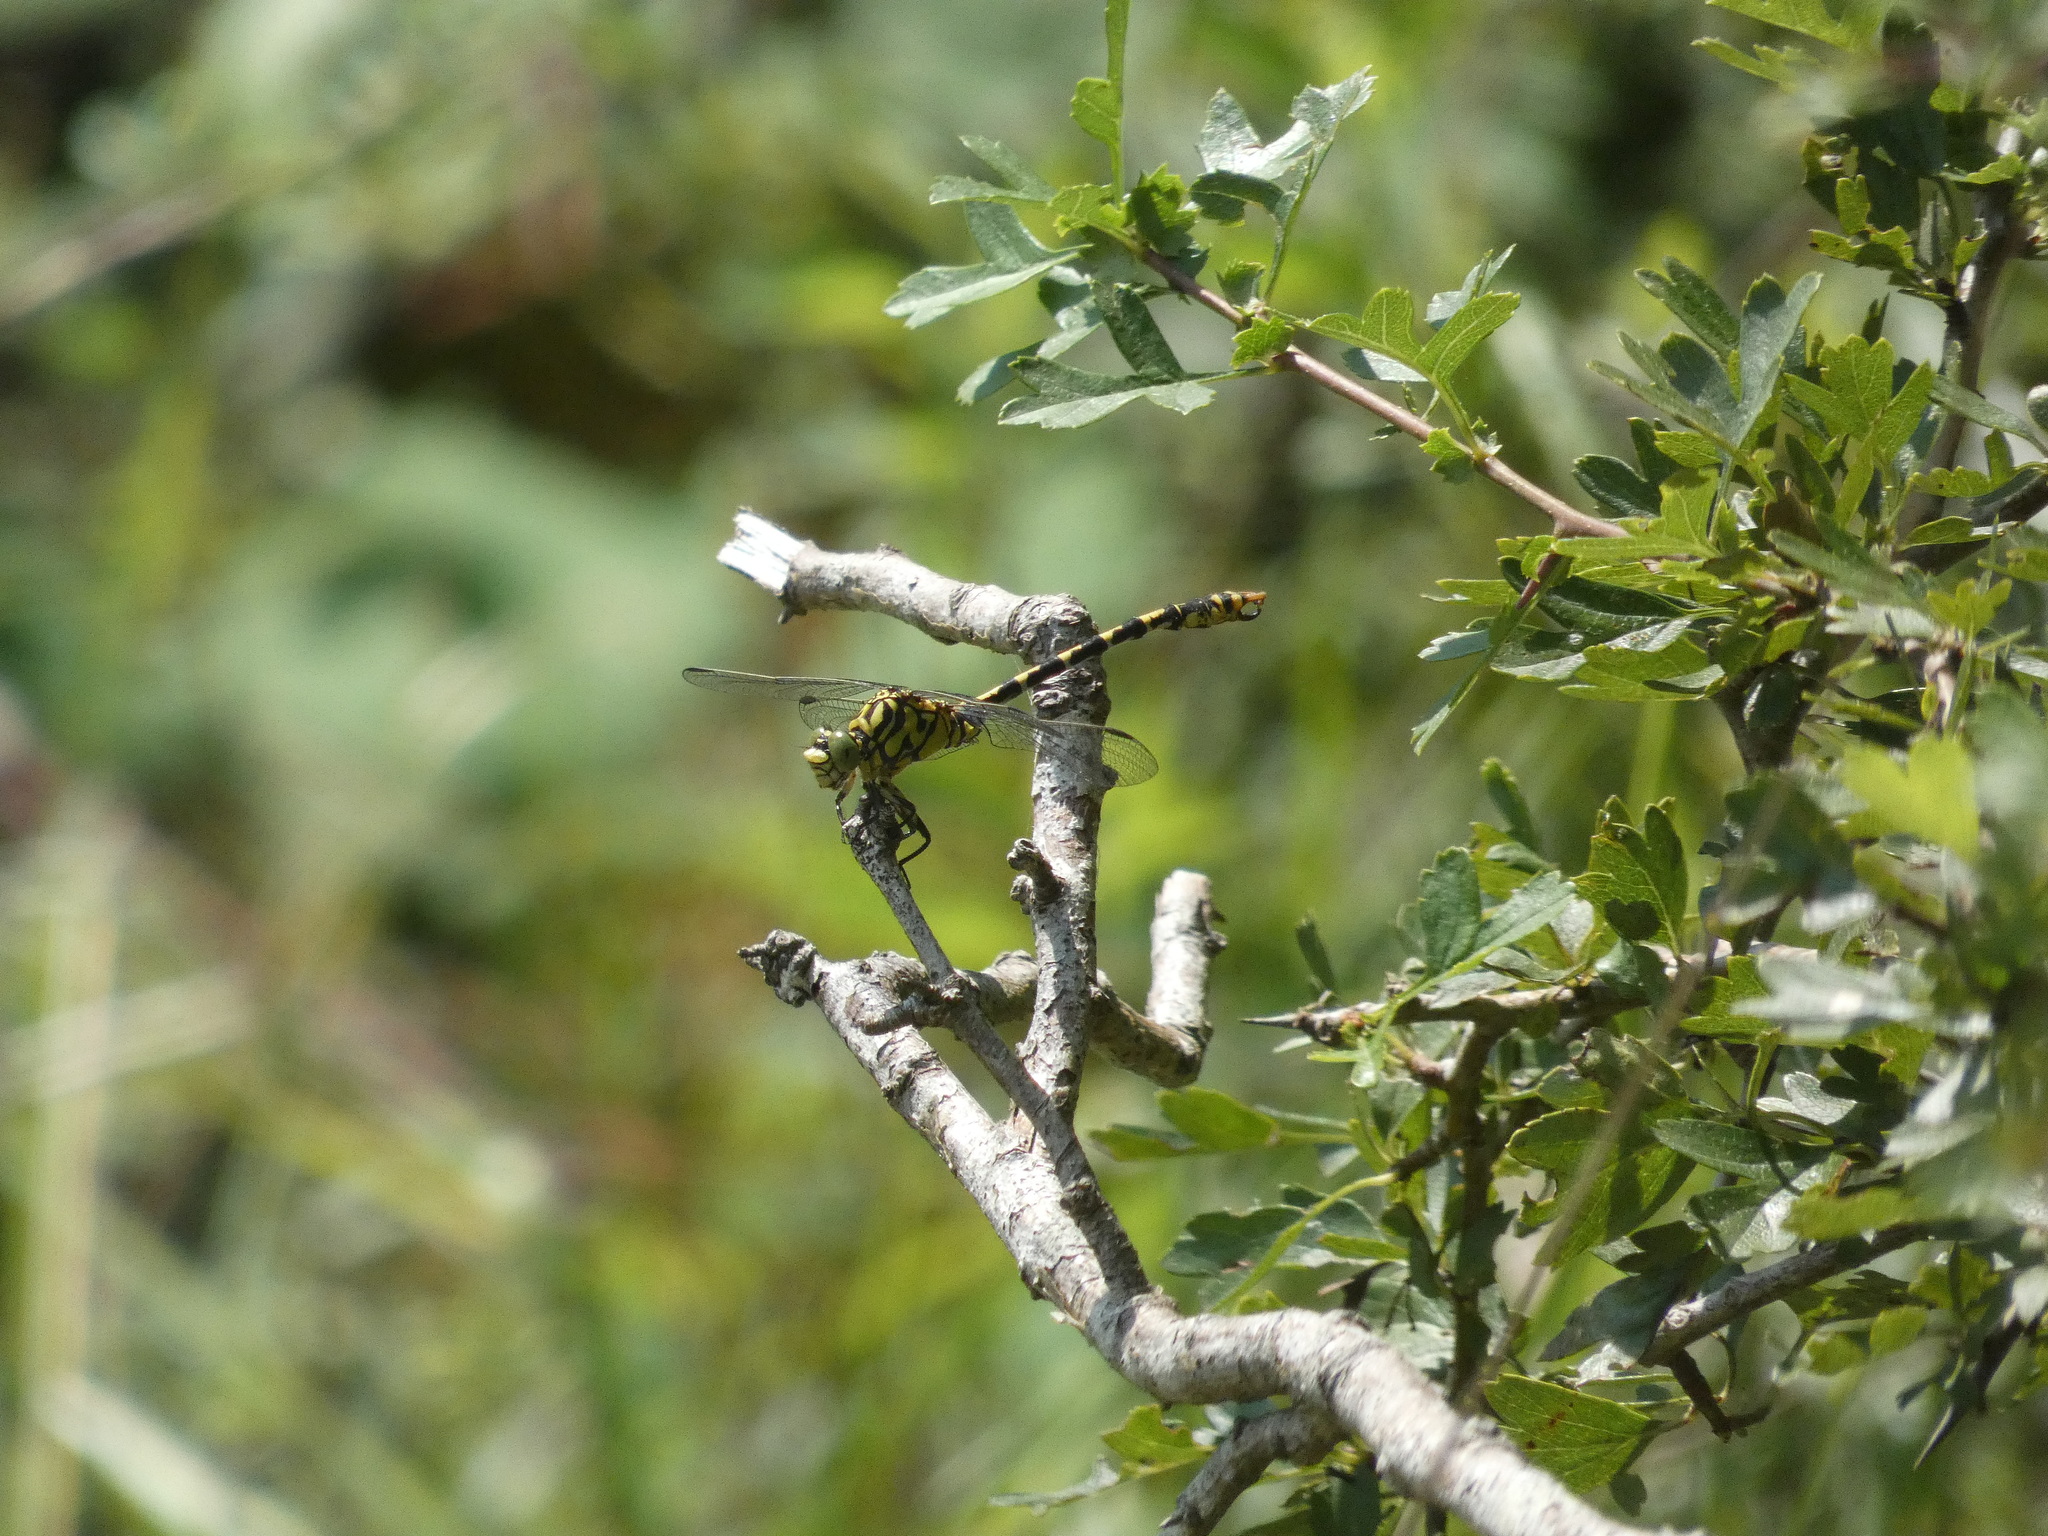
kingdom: Animalia
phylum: Arthropoda
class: Insecta
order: Odonata
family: Gomphidae
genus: Onychogomphus
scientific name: Onychogomphus forcipatus
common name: Small pincertail
